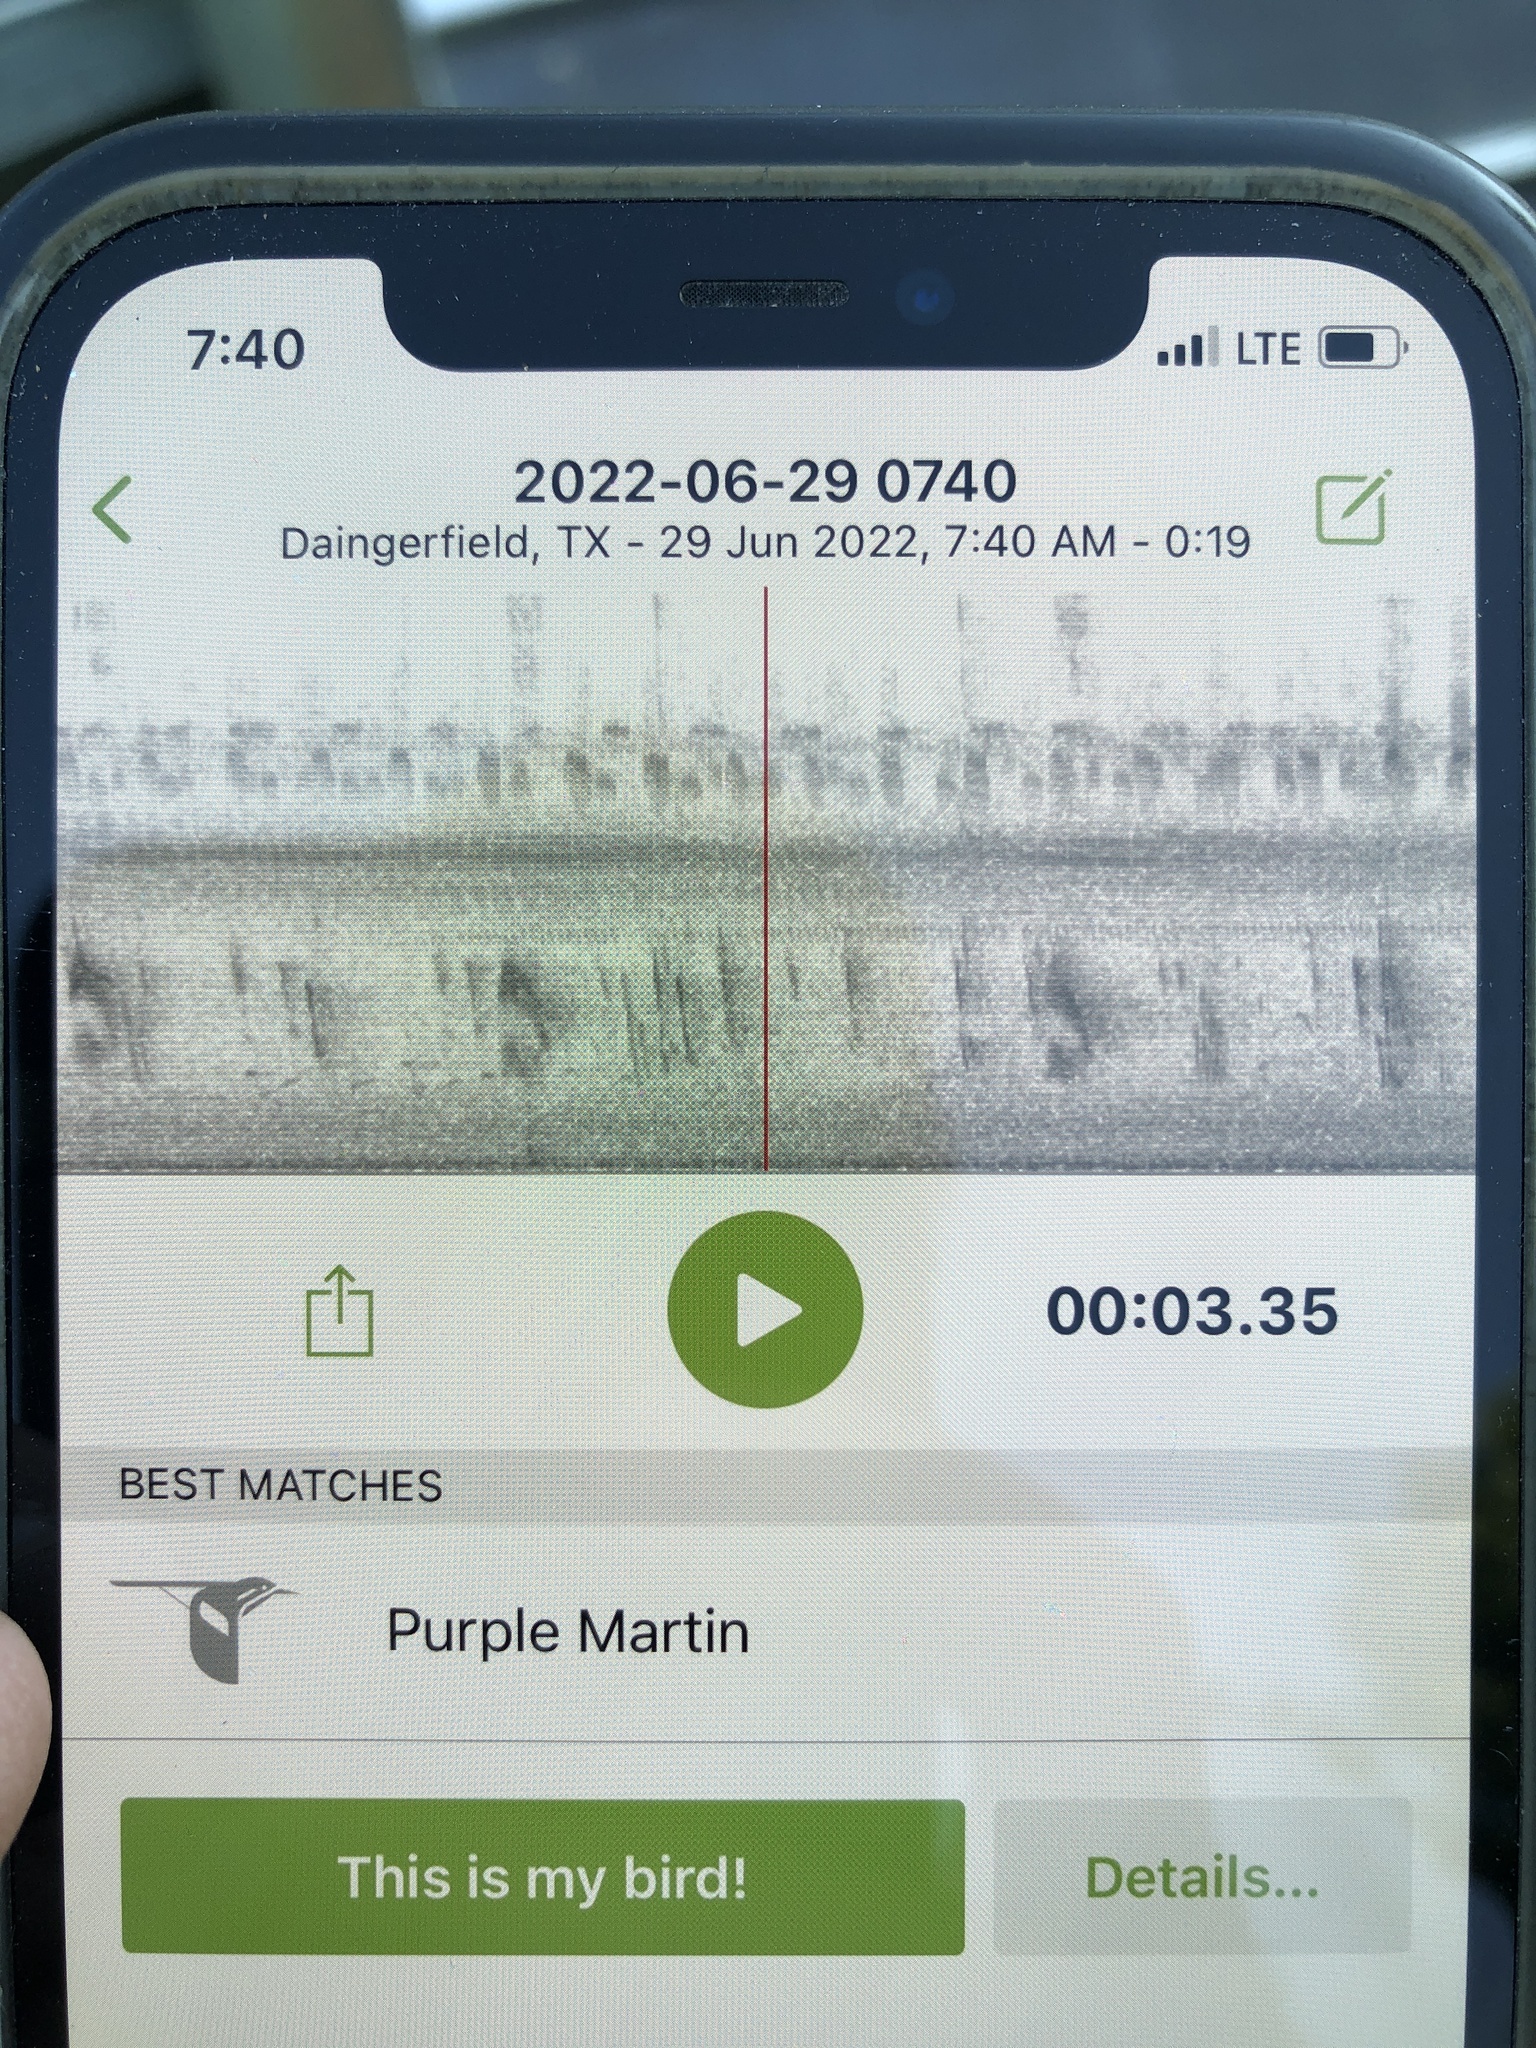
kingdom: Animalia
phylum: Chordata
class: Aves
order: Passeriformes
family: Hirundinidae
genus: Progne
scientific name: Progne subis
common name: Purple martin
